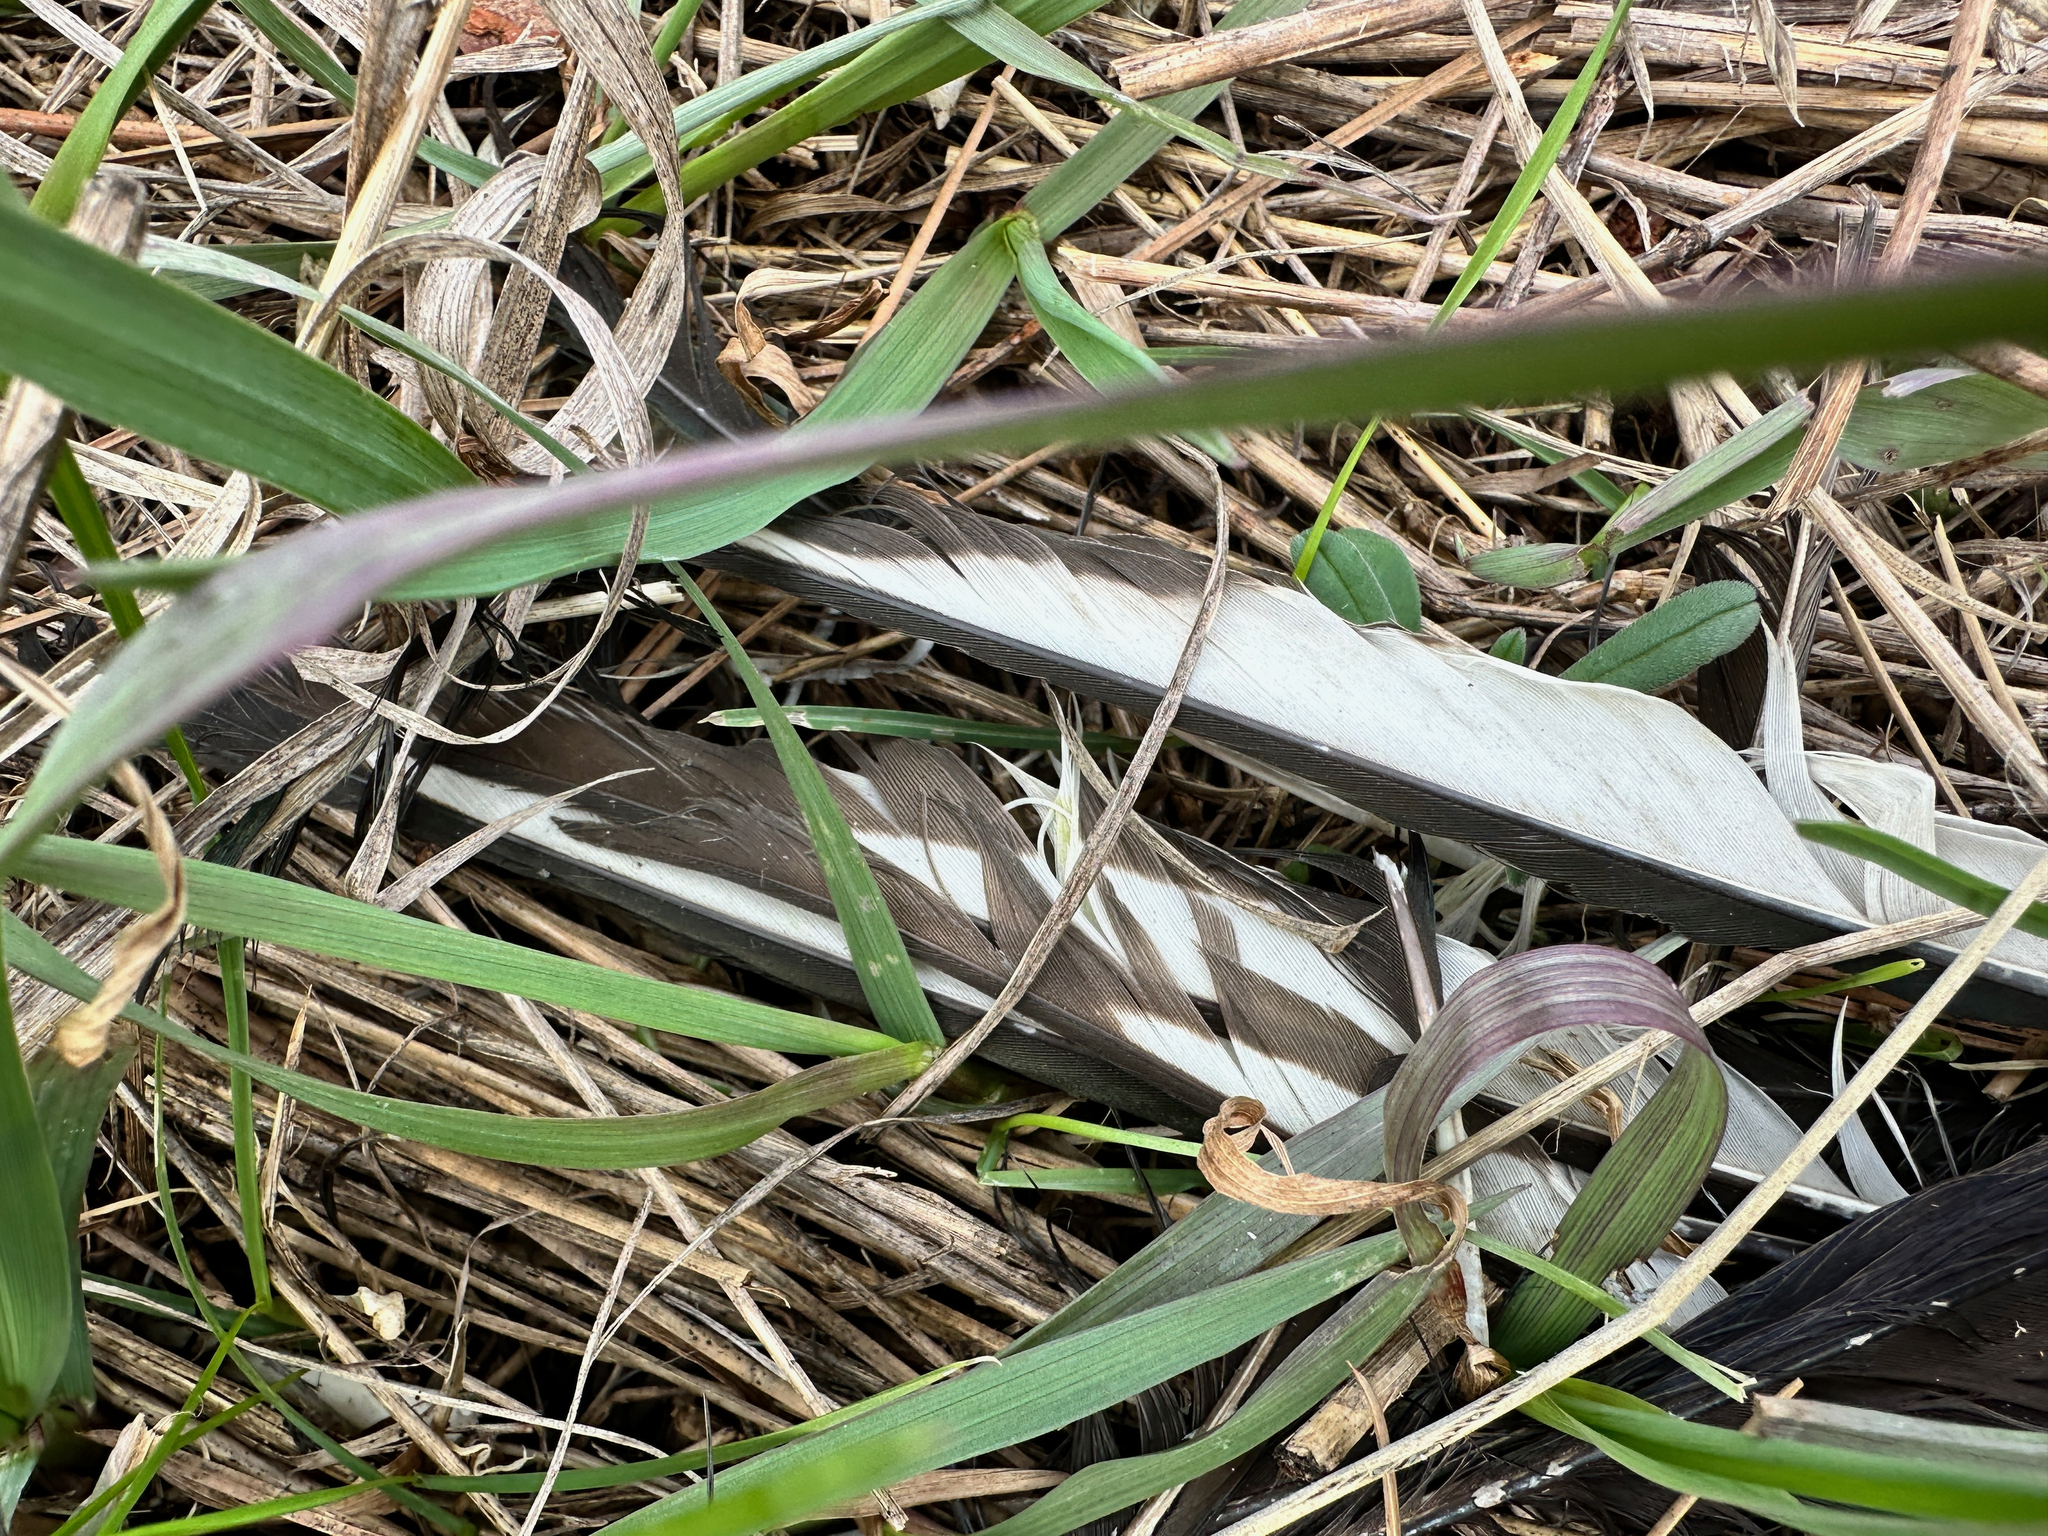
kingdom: Animalia
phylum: Chordata
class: Aves
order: Passeriformes
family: Corvidae
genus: Pica
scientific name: Pica hudsonia
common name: Black-billed magpie
